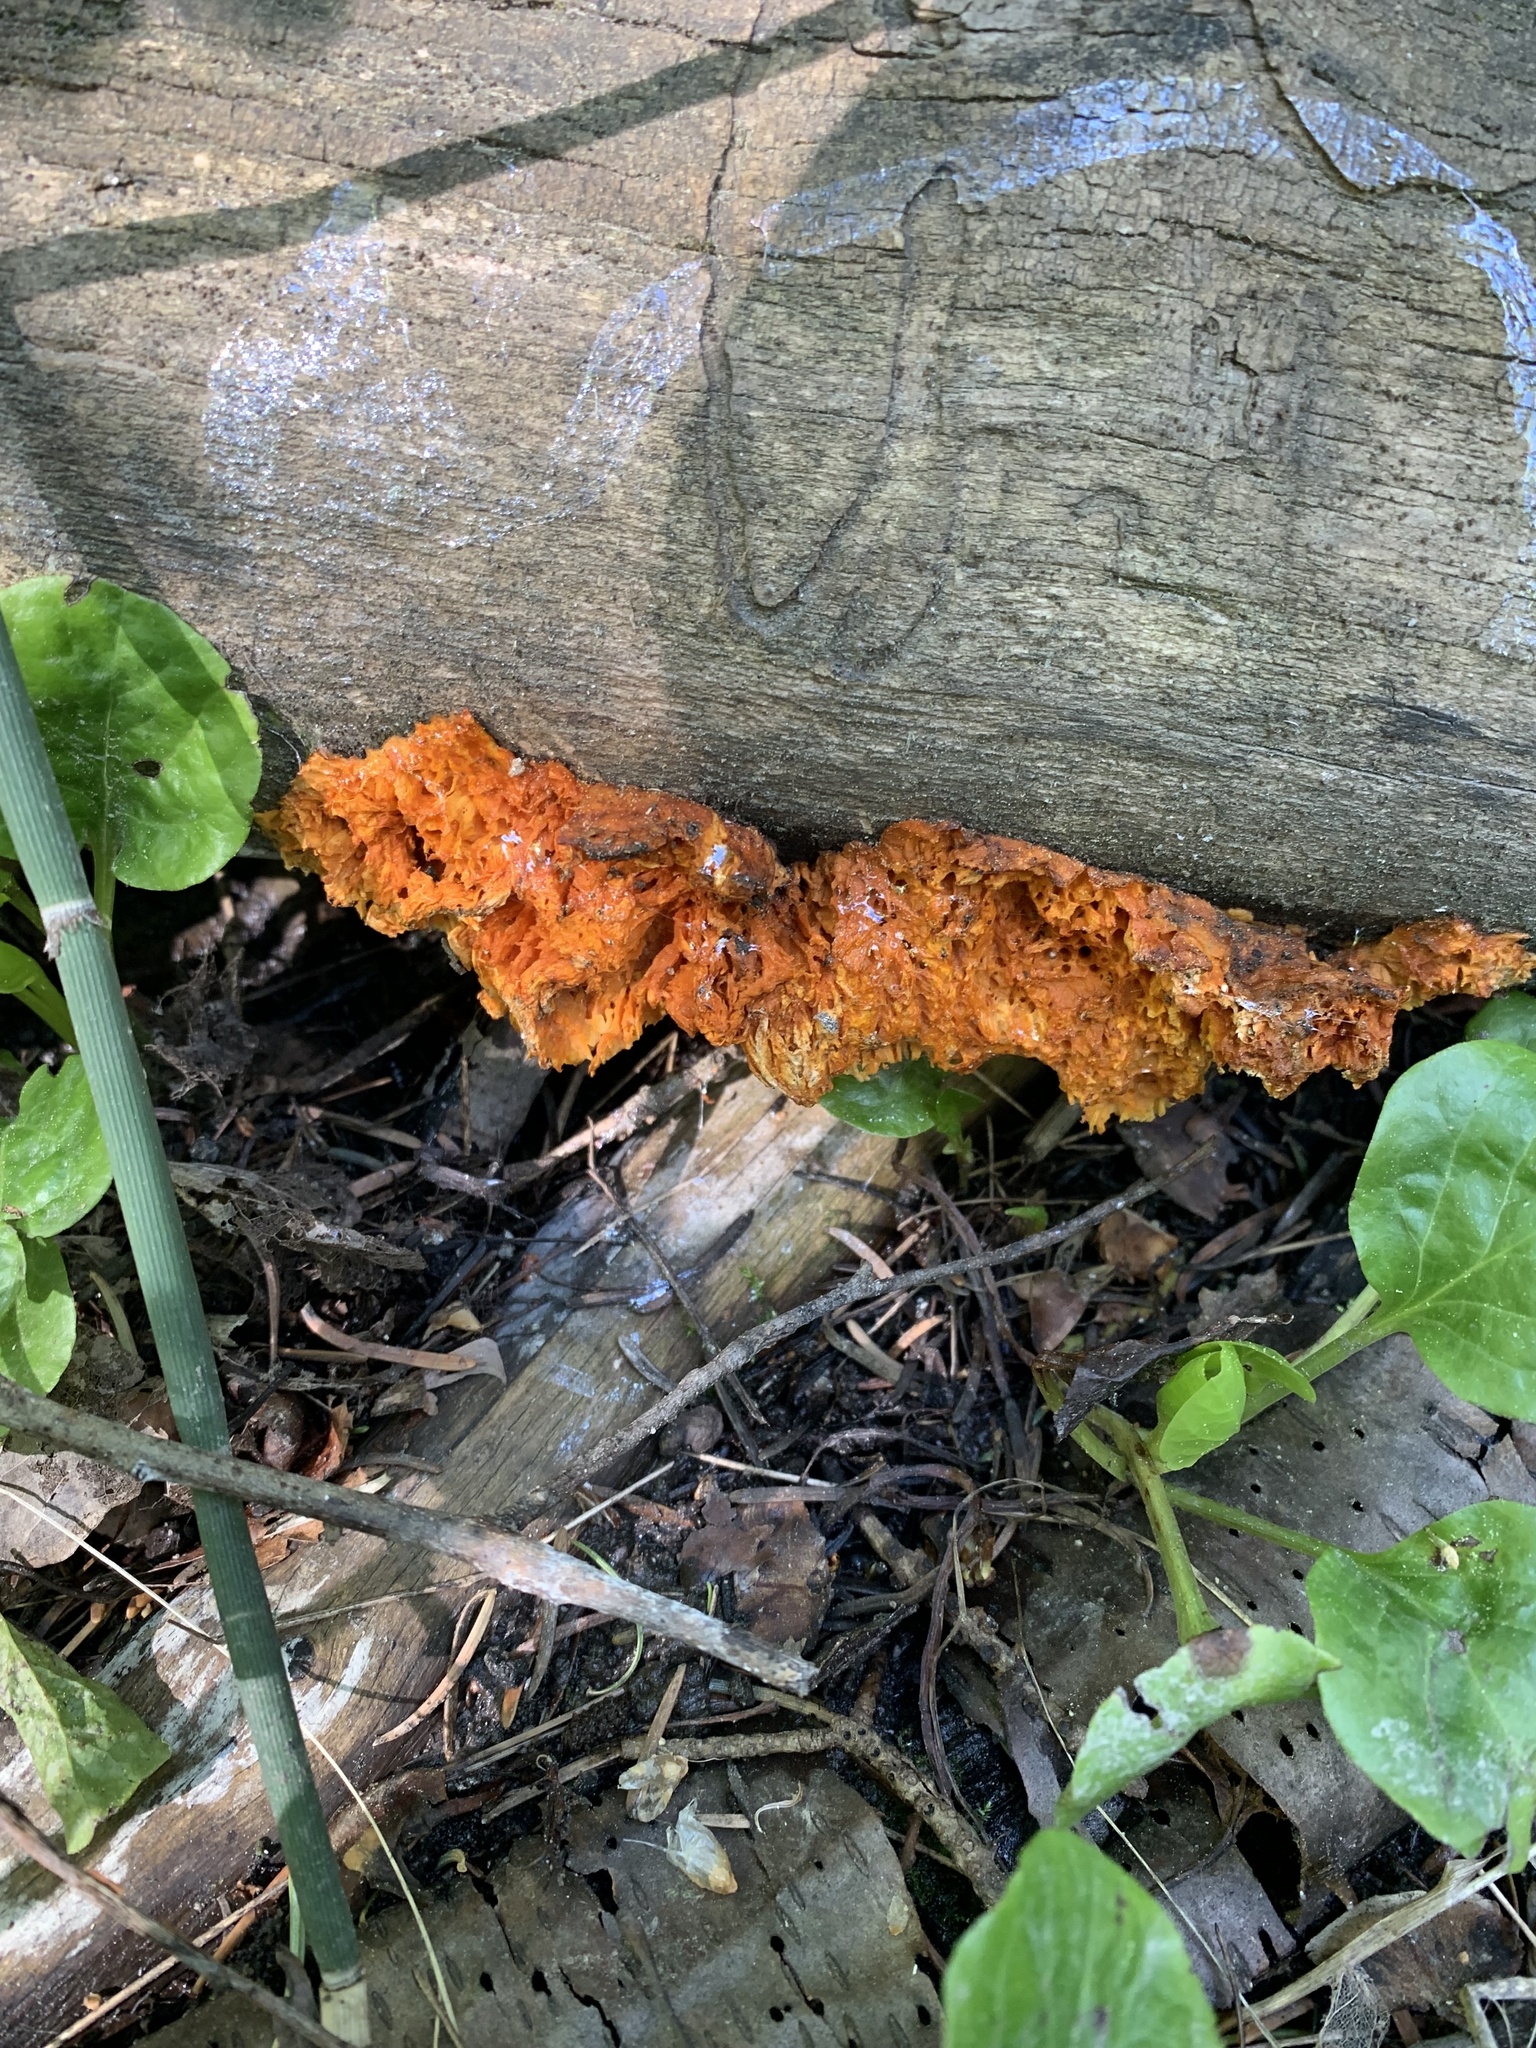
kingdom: Fungi
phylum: Basidiomycota
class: Agaricomycetes
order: Polyporales
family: Pycnoporellaceae
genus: Pycnoporellus
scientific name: Pycnoporellus alboluteus
